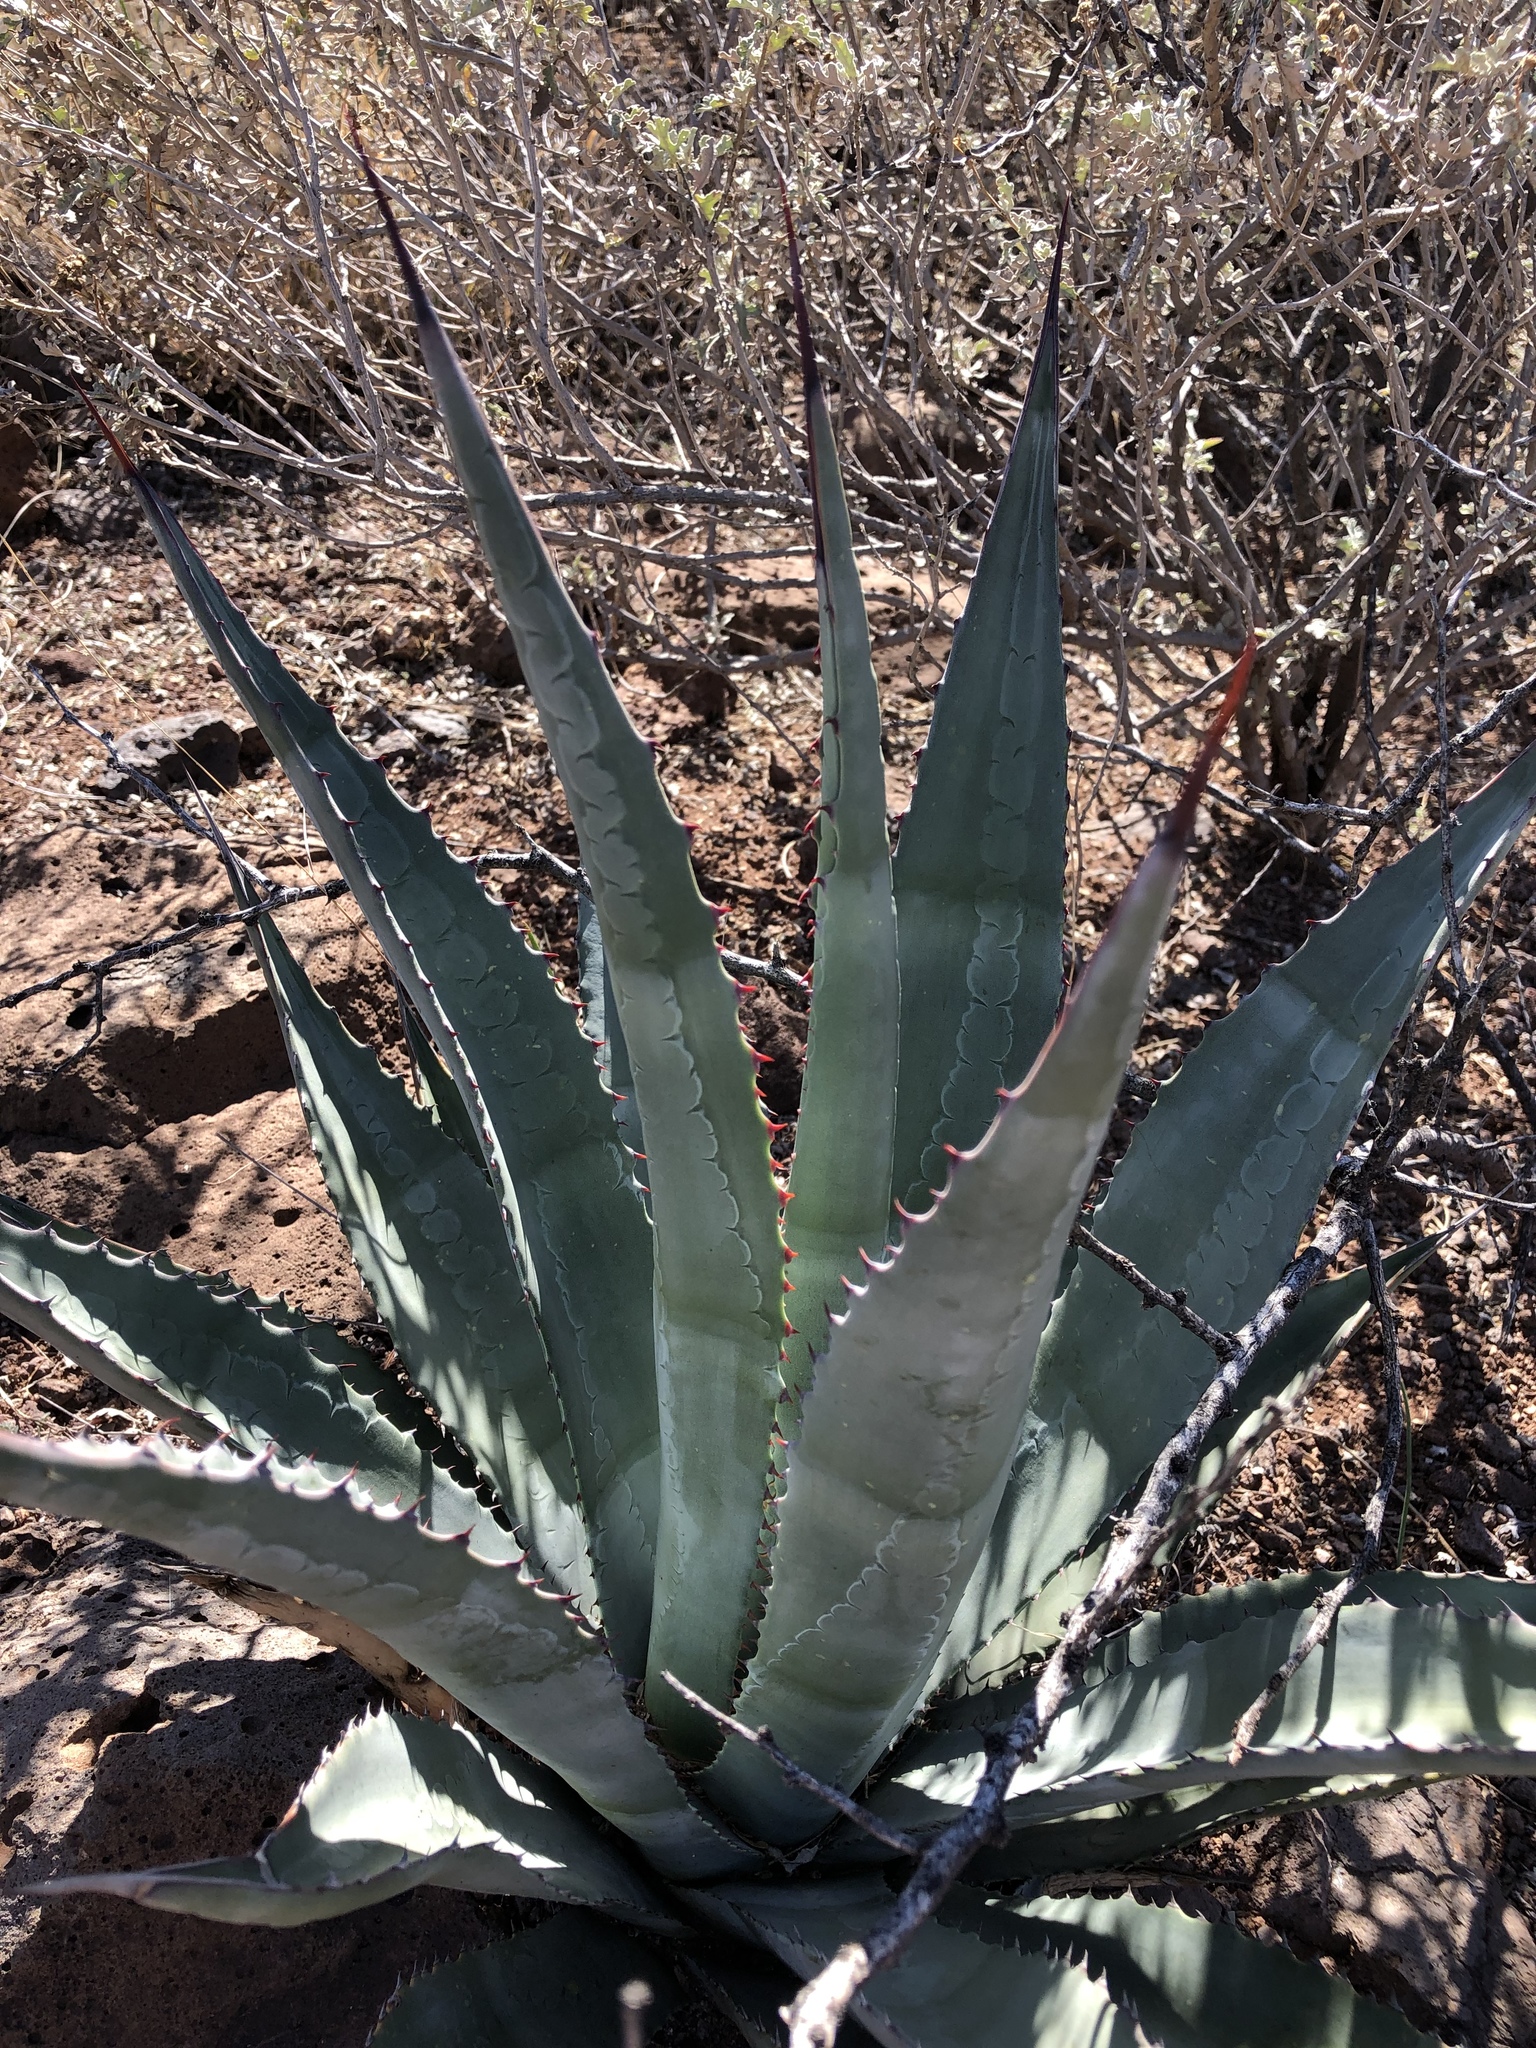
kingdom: Plantae
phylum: Tracheophyta
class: Liliopsida
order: Asparagales
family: Asparagaceae
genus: Agave
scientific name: Agave palmeri
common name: Palmer agave
